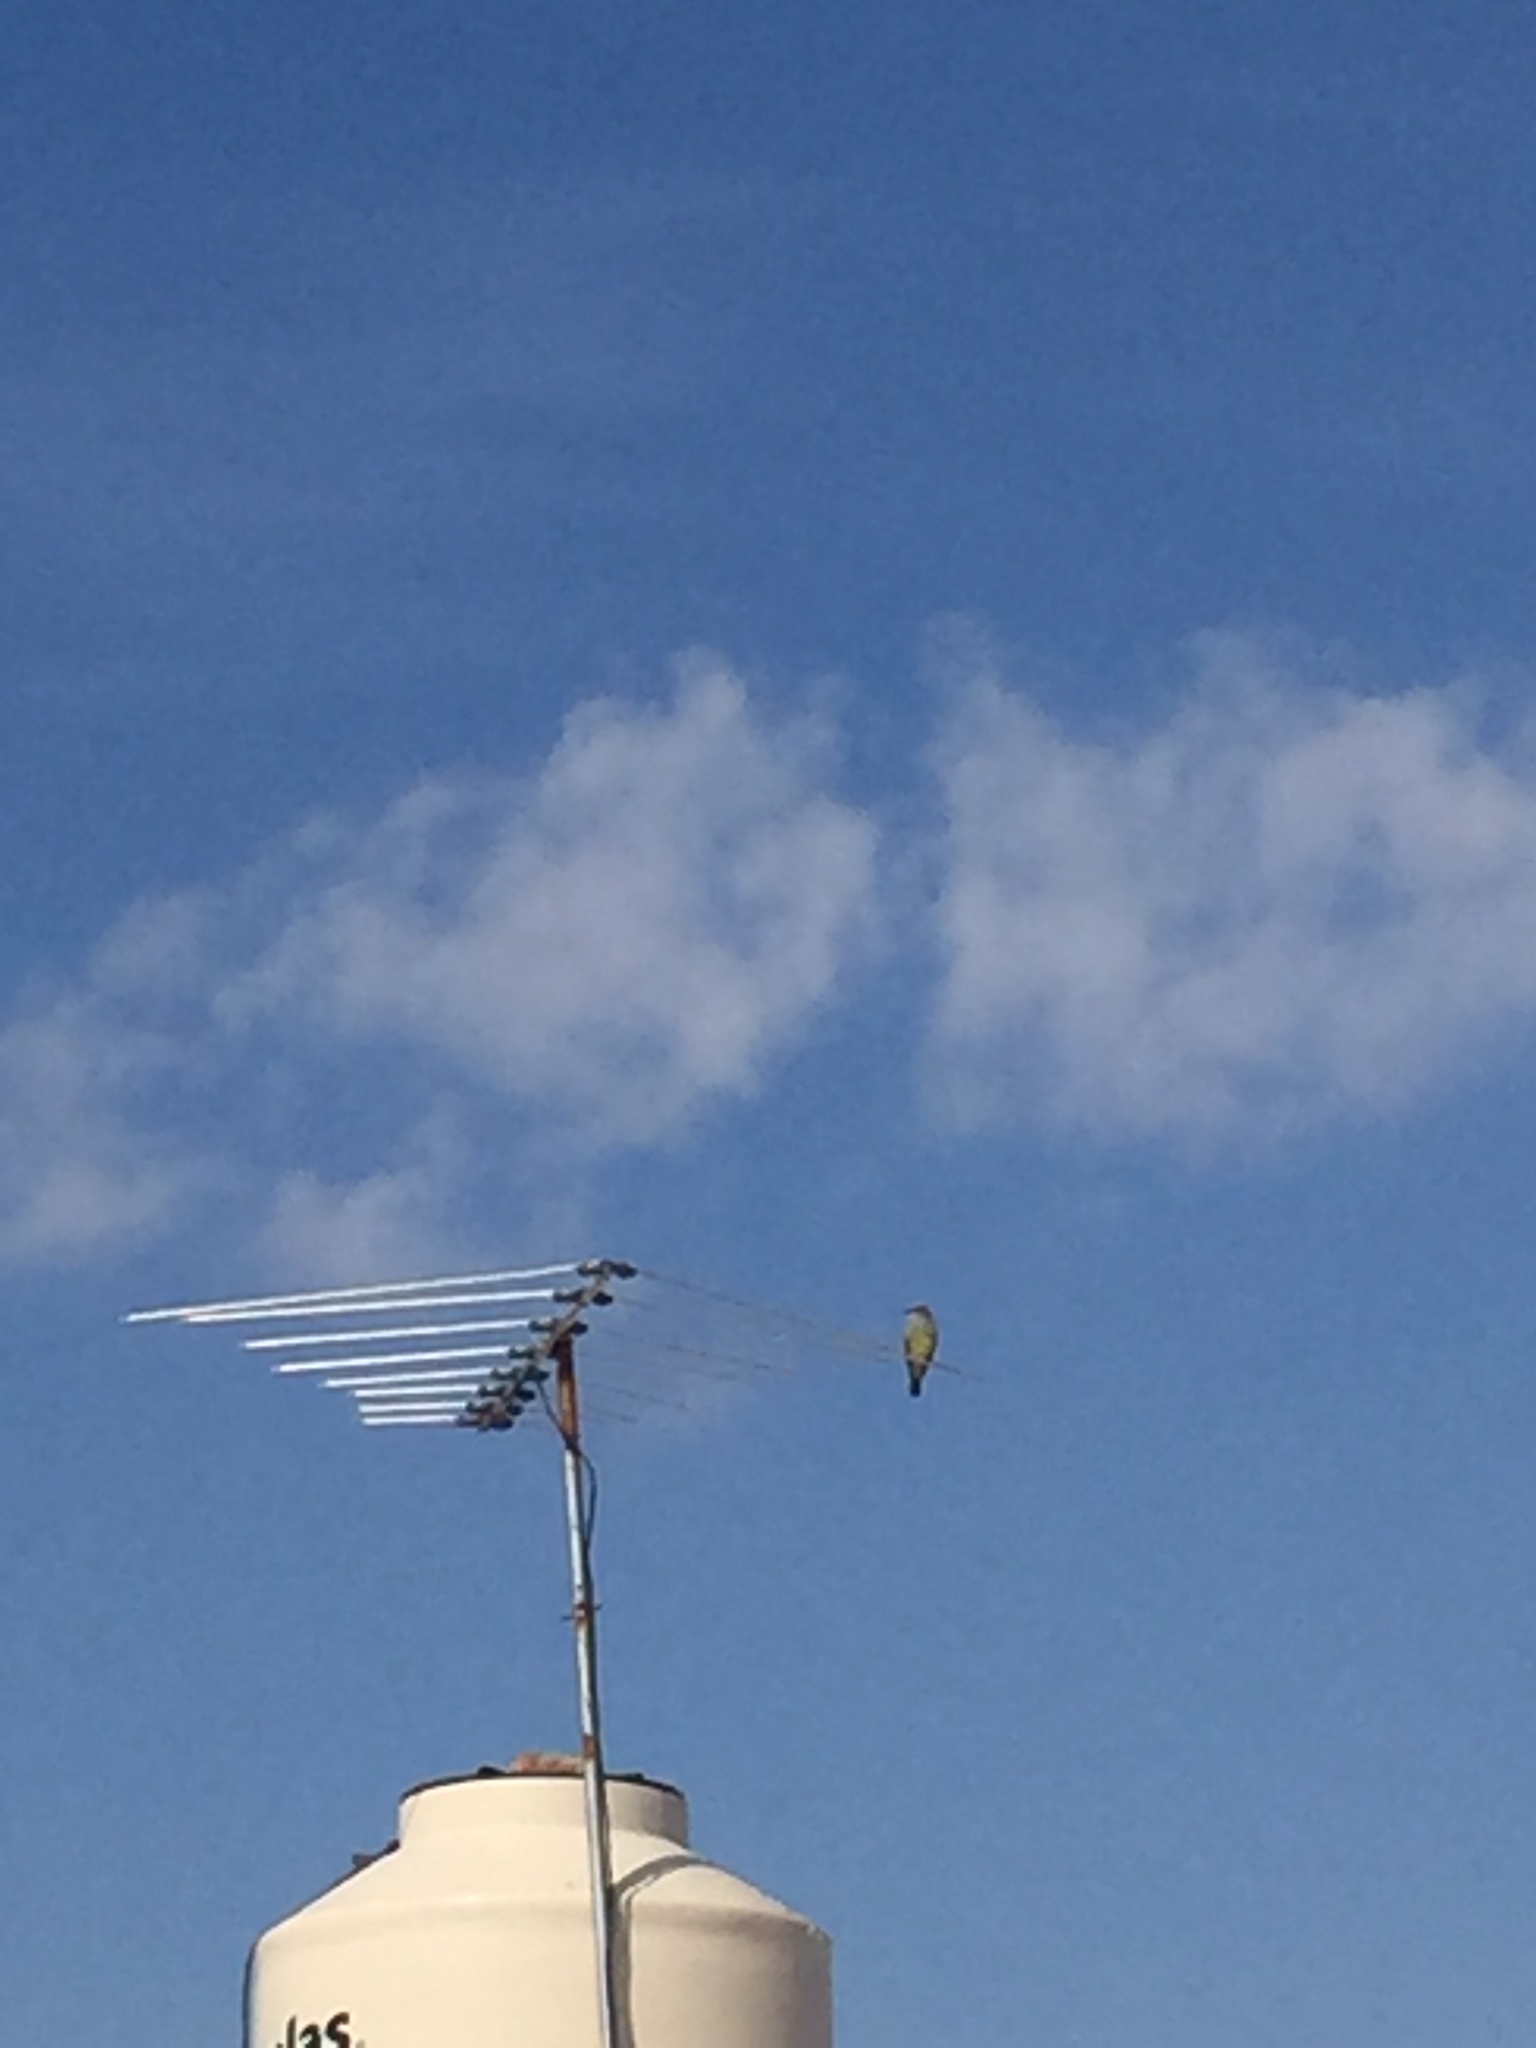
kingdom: Animalia
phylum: Chordata
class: Aves
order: Passeriformes
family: Tyrannidae
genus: Tyrannus
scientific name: Tyrannus vociferans
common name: Cassin's kingbird
